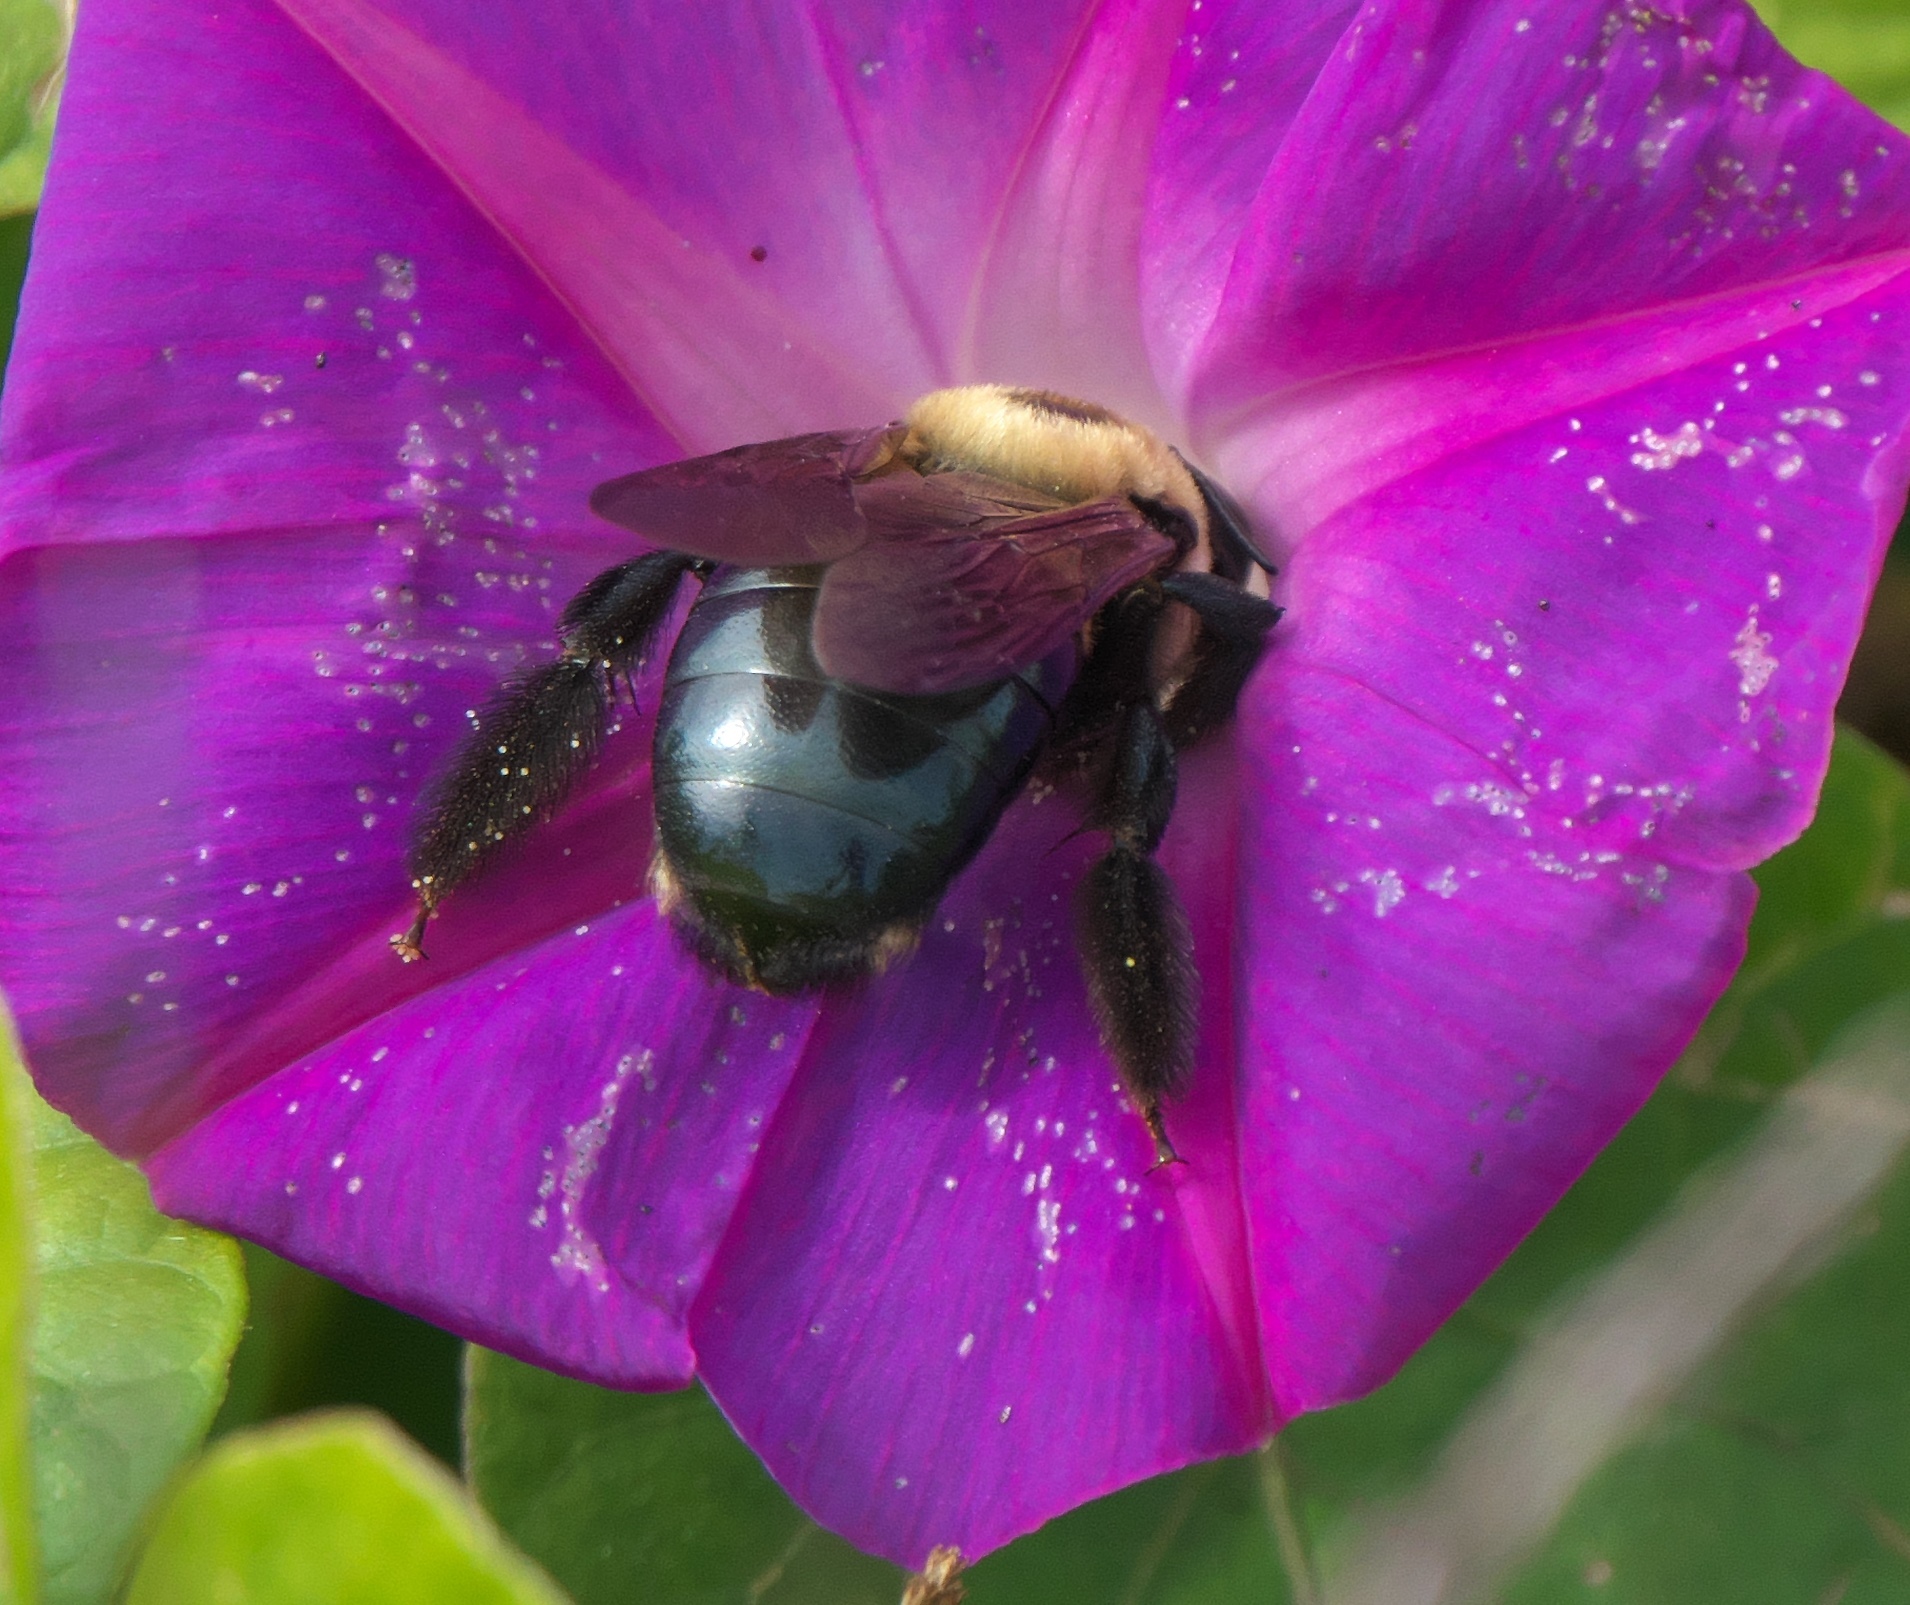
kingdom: Animalia
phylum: Arthropoda
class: Insecta
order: Hymenoptera
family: Apidae
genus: Xylocopa
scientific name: Xylocopa virginica
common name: Carpenter bee
